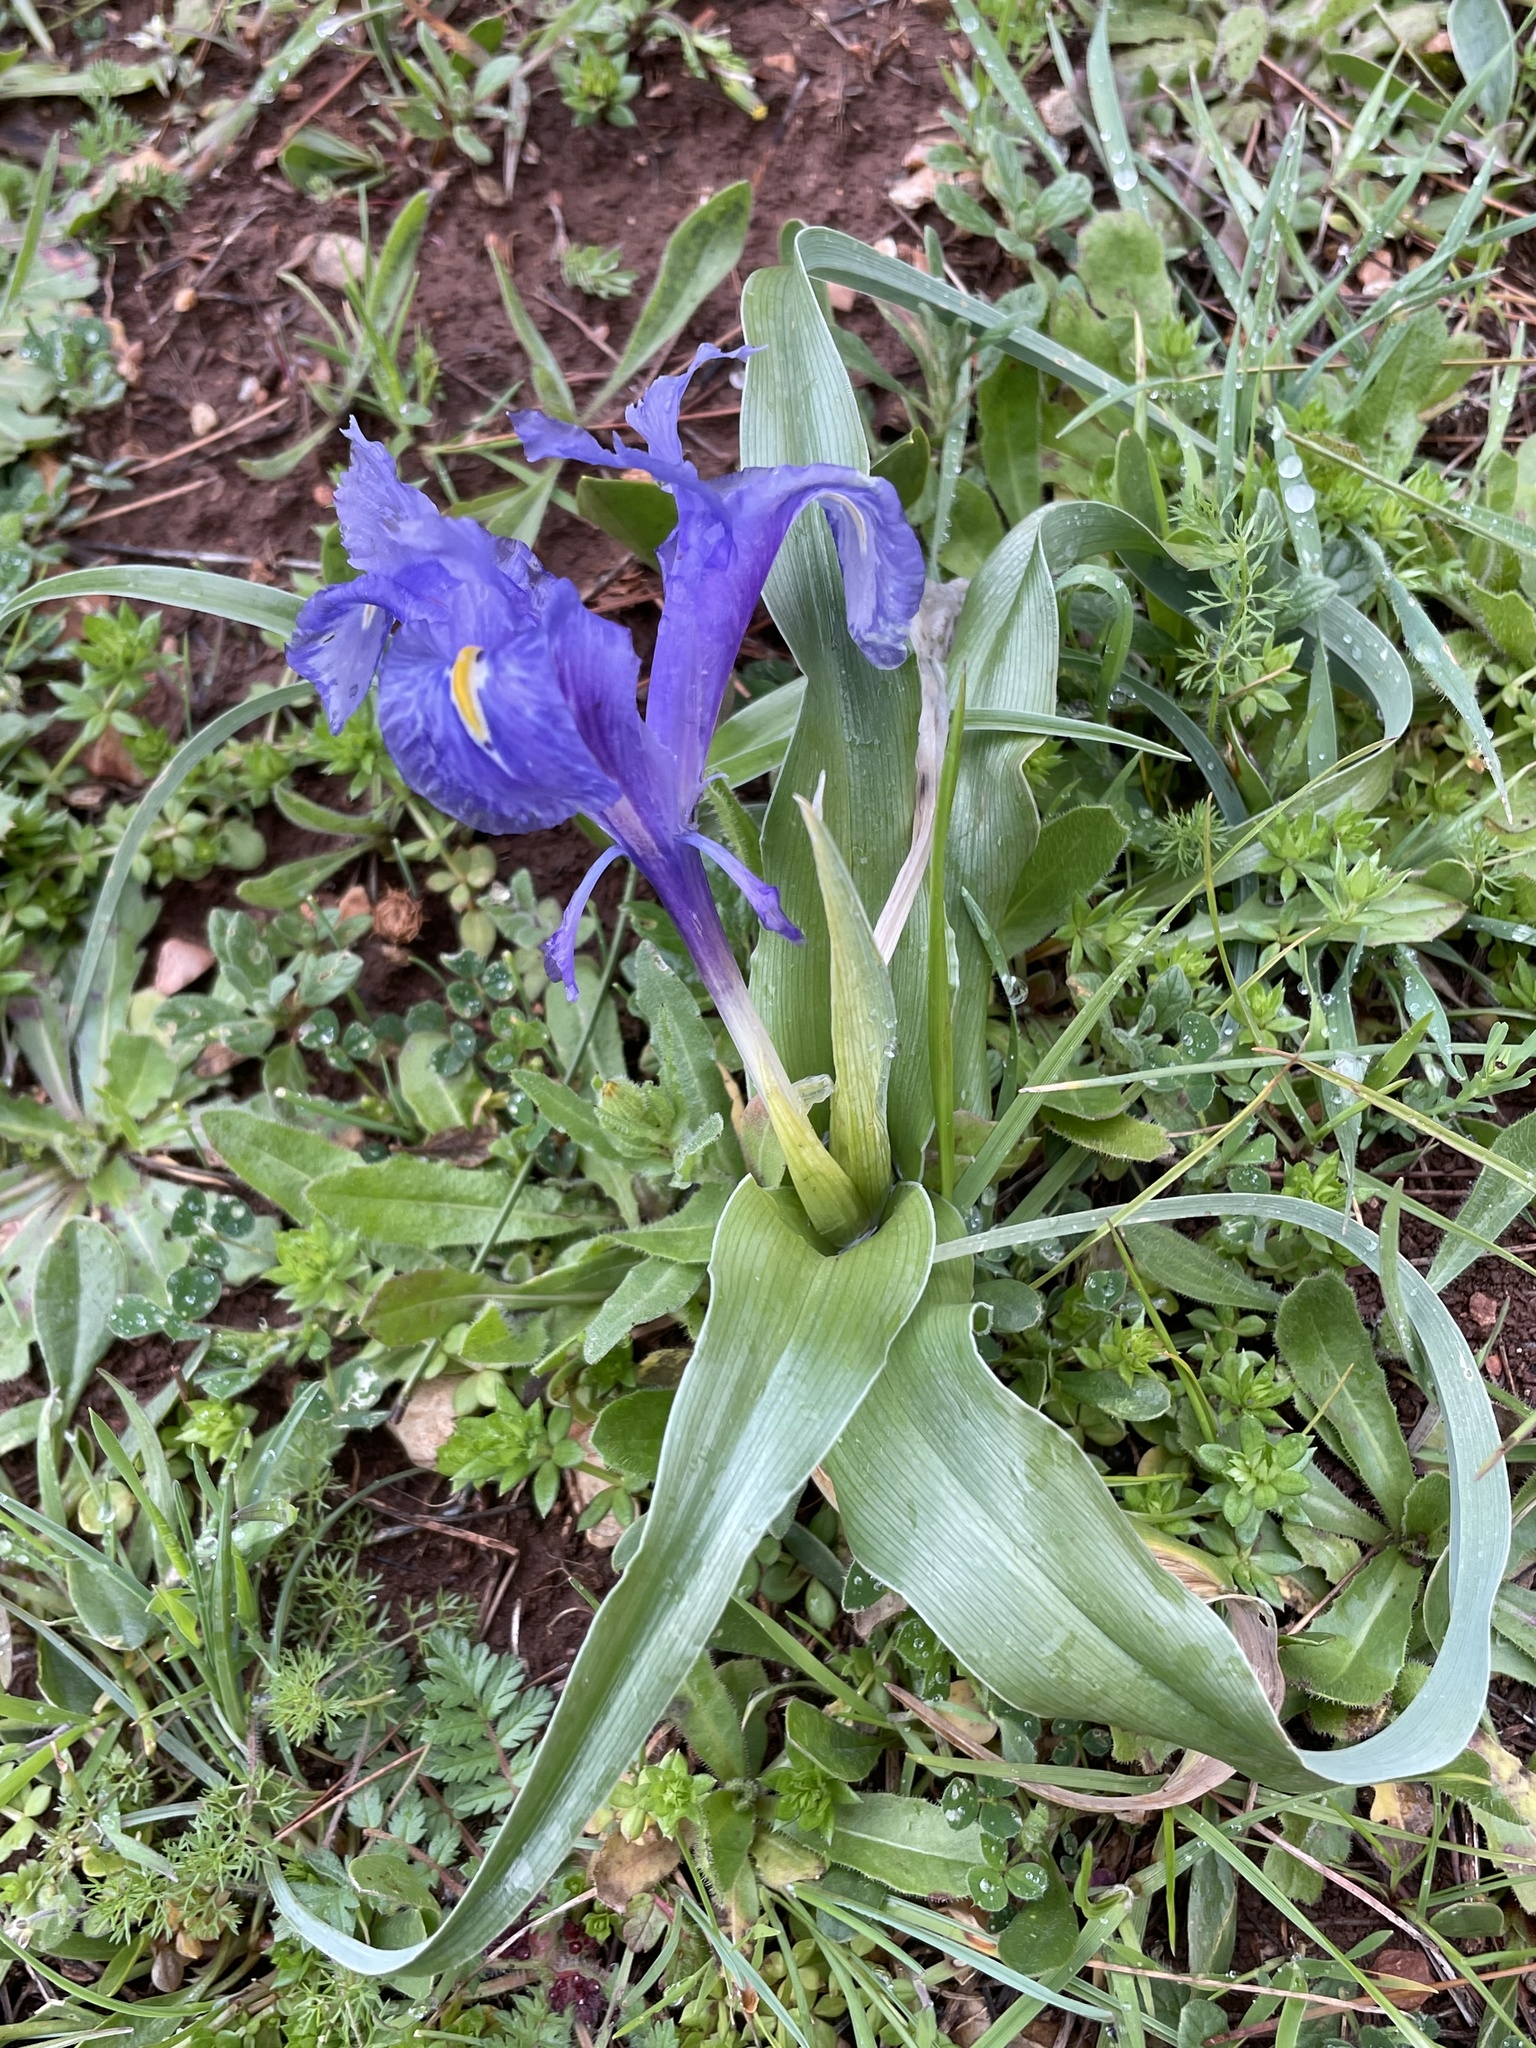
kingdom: Plantae
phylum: Tracheophyta
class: Liliopsida
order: Asparagales
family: Iridaceae
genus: Iris
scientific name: Iris planifolia
